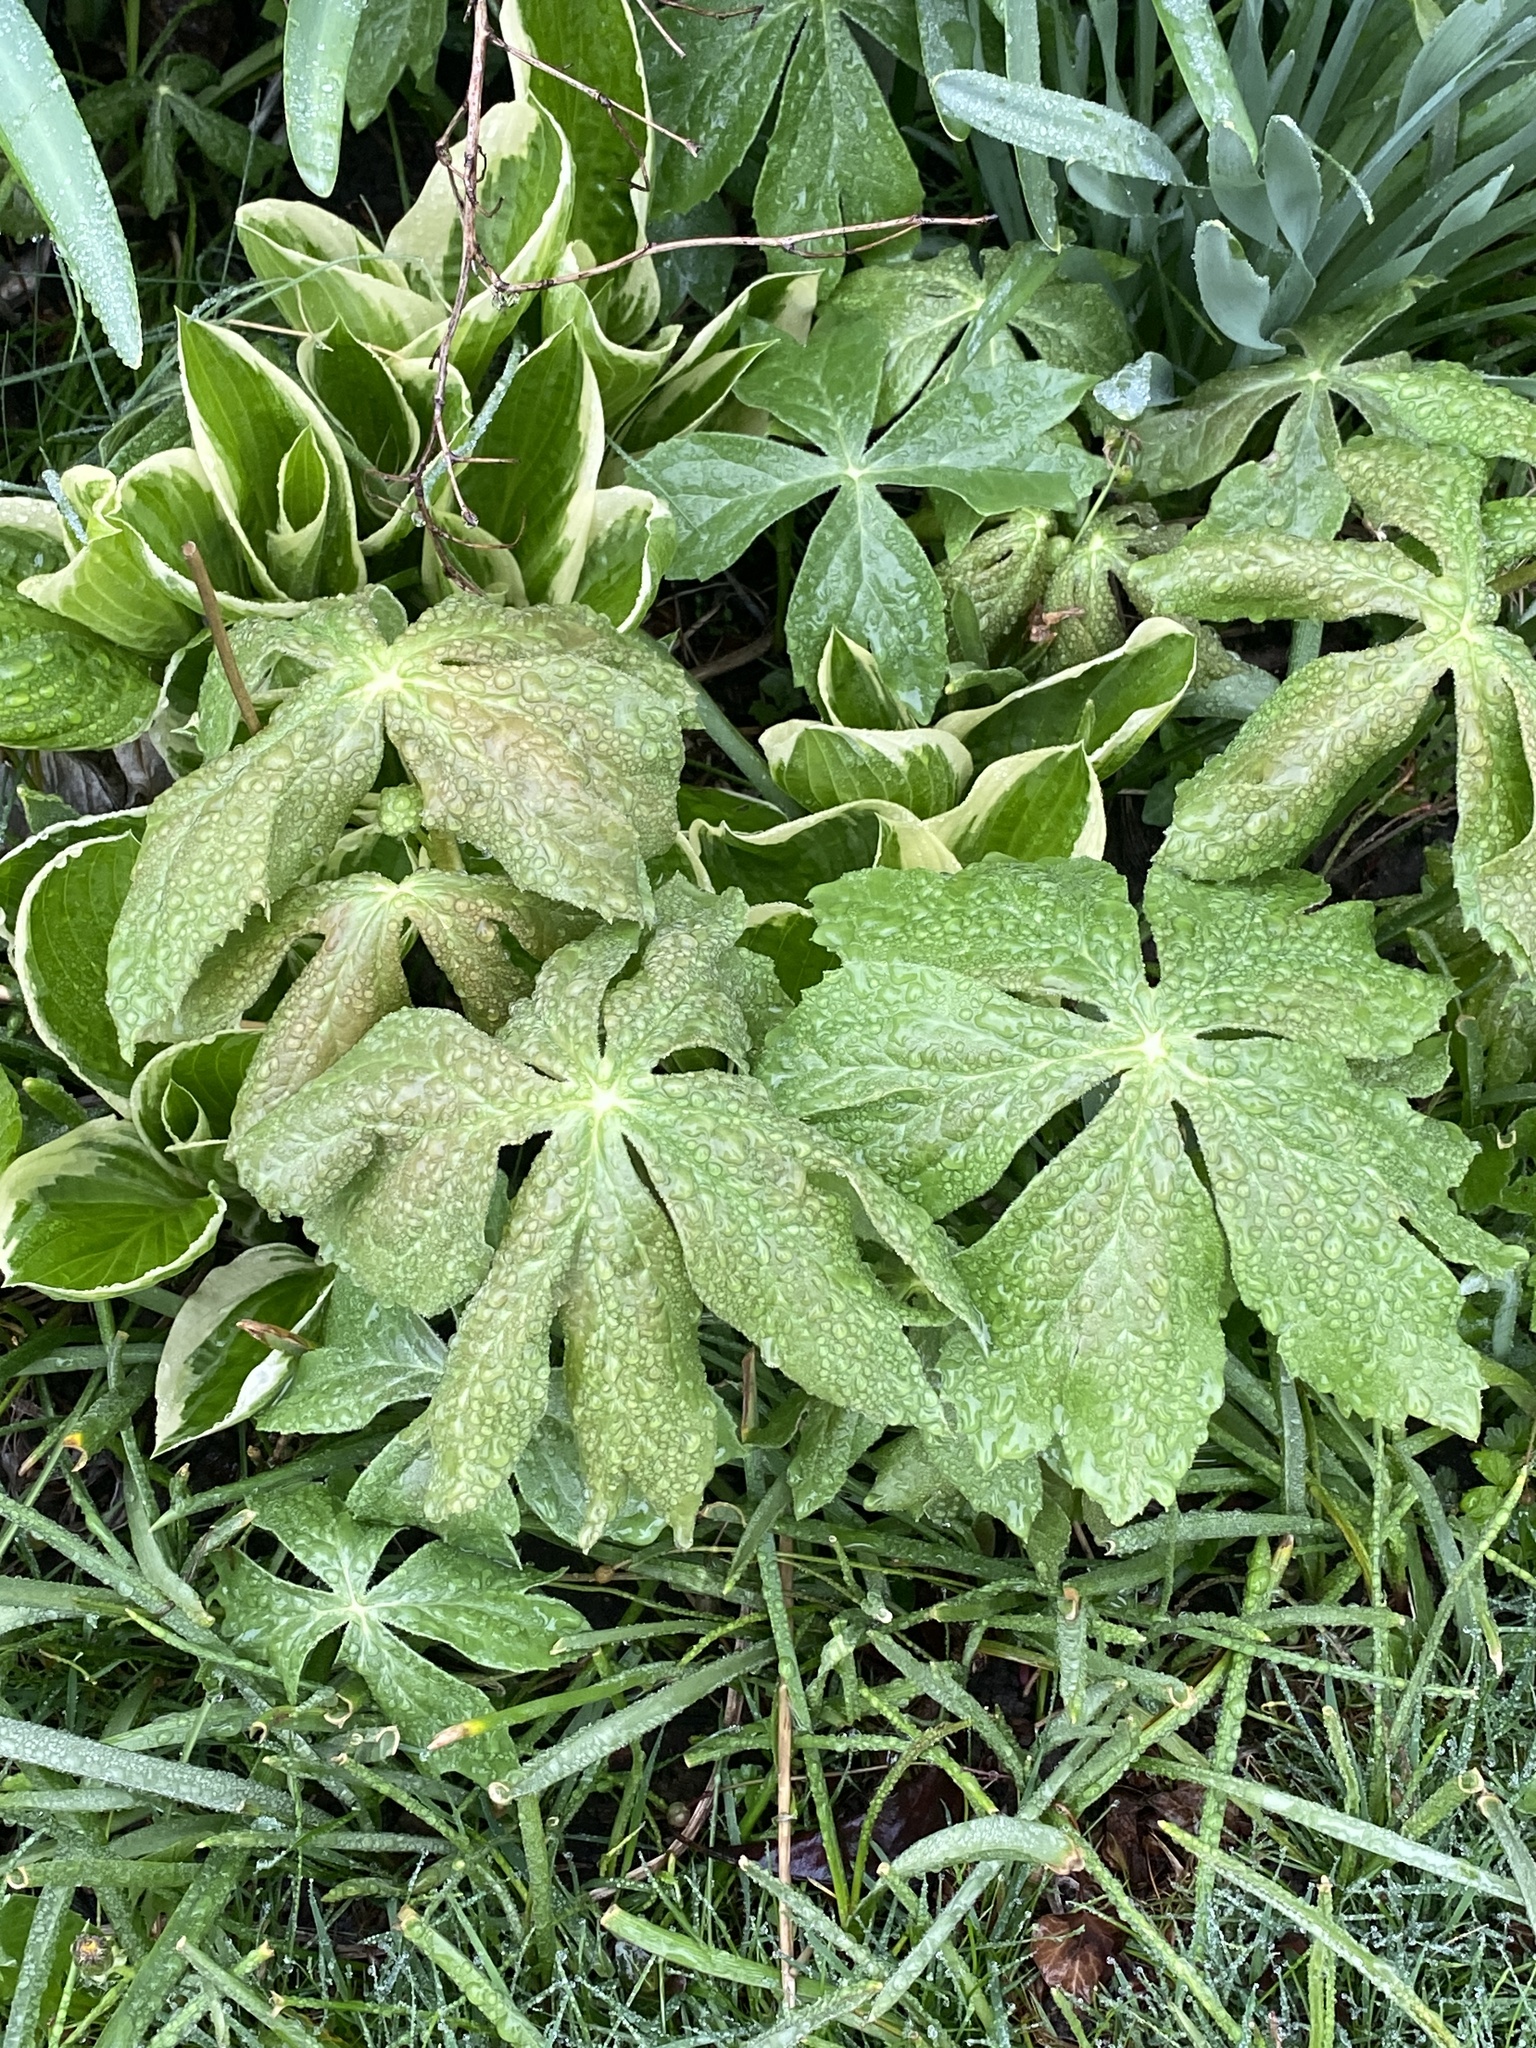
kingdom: Plantae
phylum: Tracheophyta
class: Magnoliopsida
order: Ranunculales
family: Berberidaceae
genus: Podophyllum
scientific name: Podophyllum peltatum
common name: Wild mandrake
